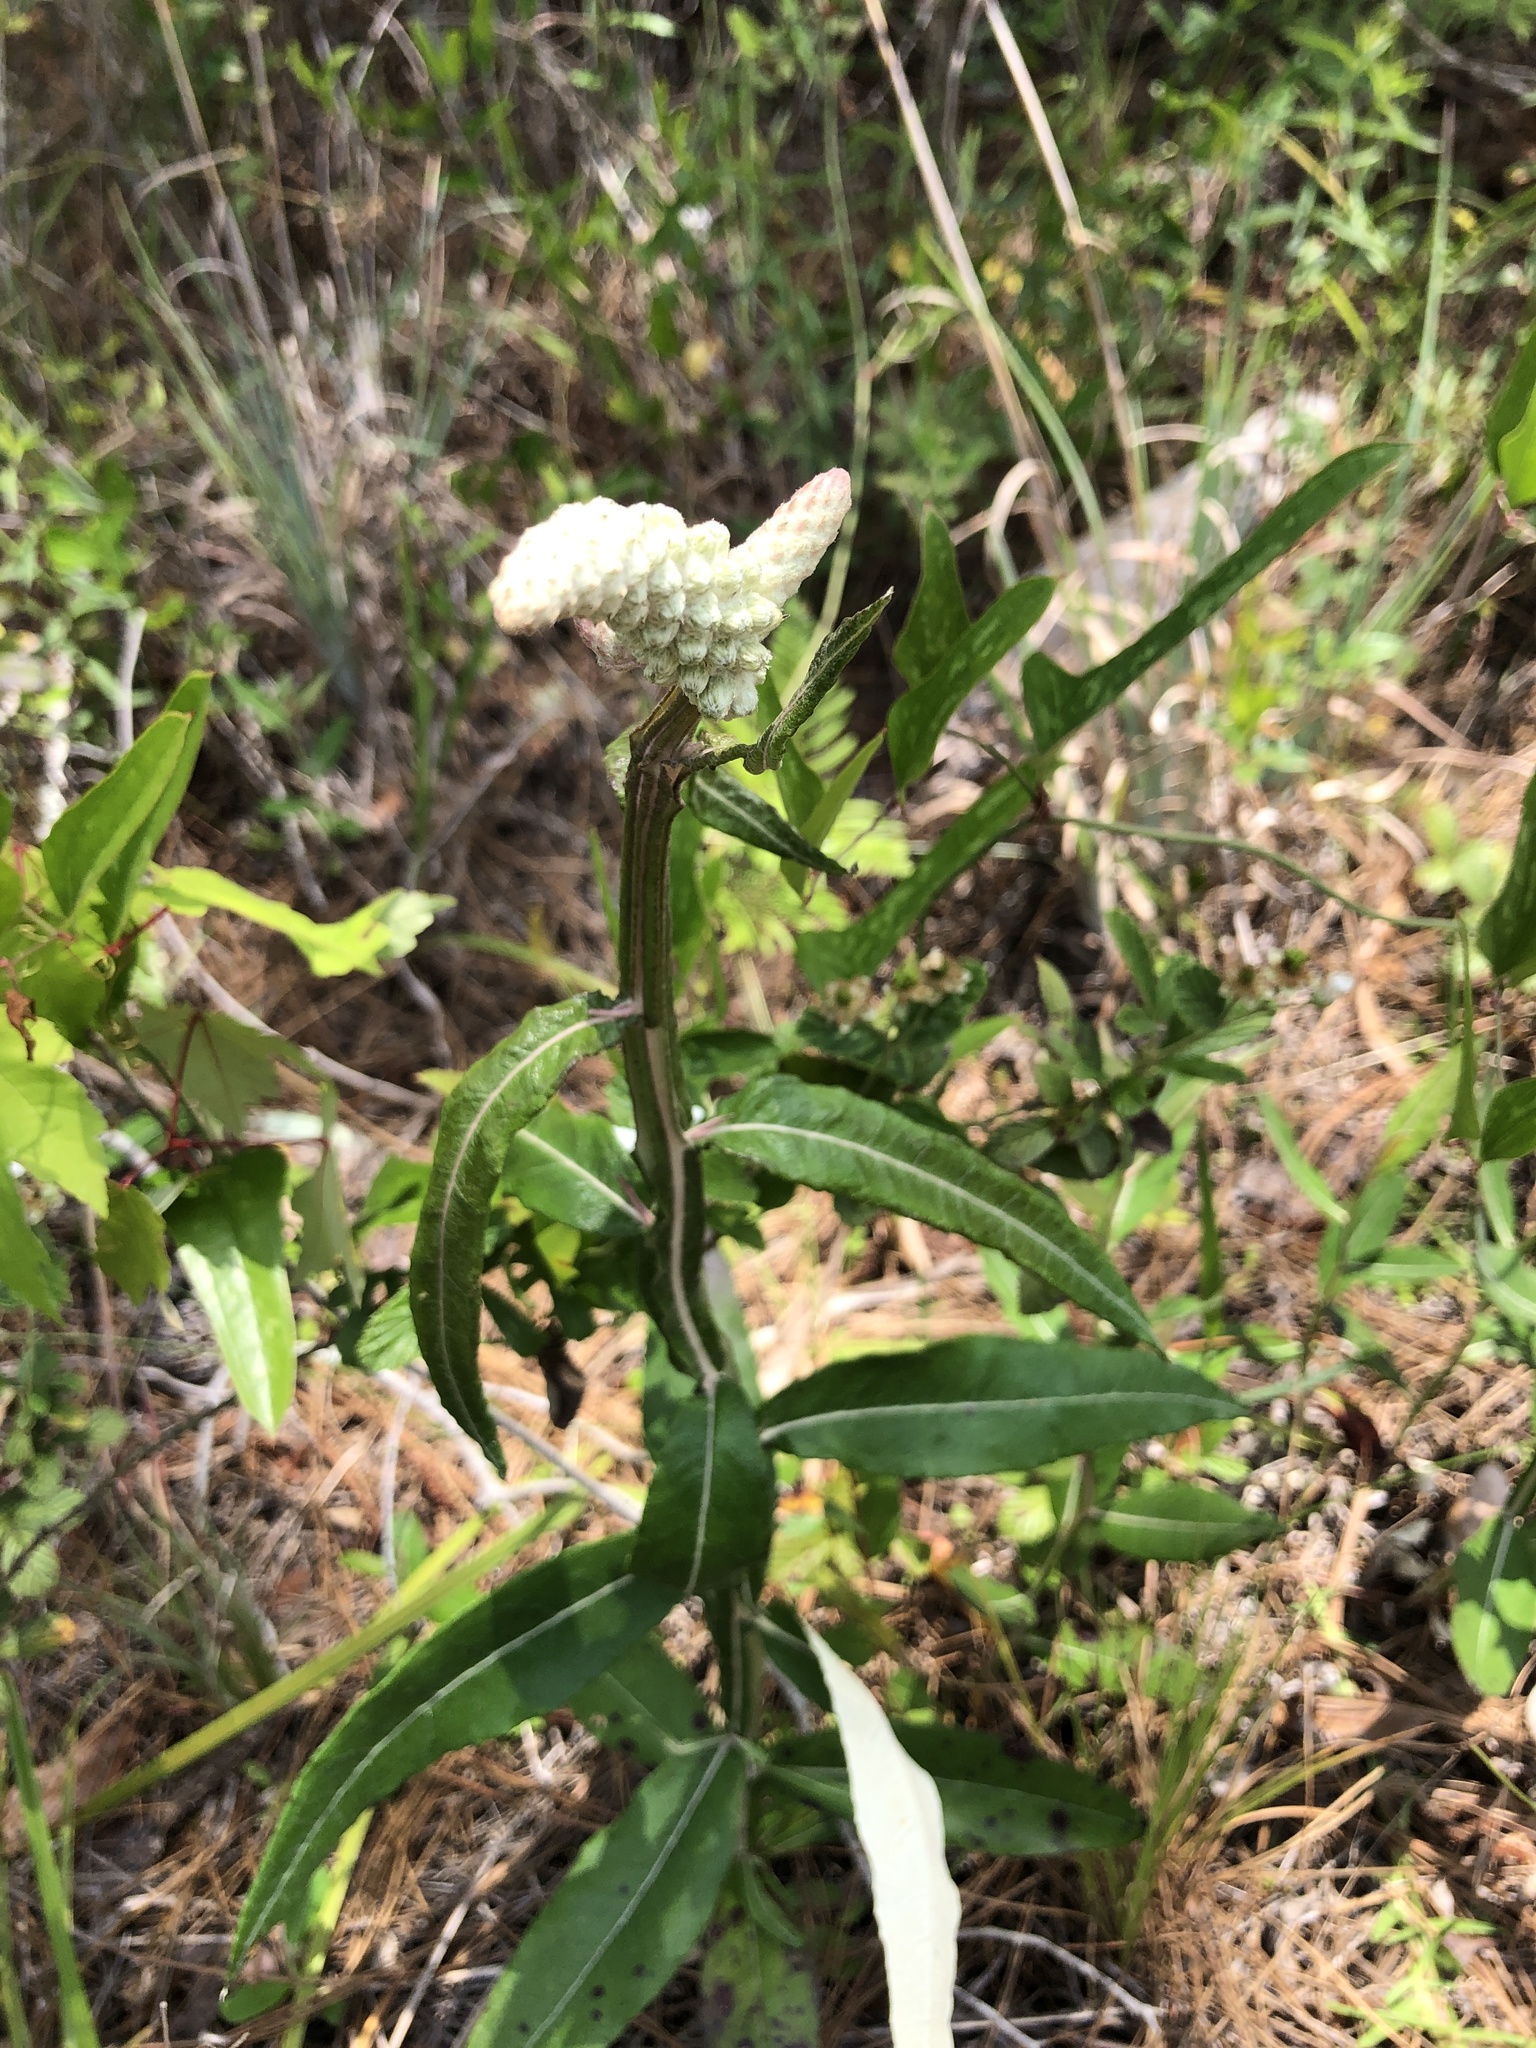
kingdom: Plantae
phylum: Tracheophyta
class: Magnoliopsida
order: Asterales
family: Asteraceae
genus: Pterocaulon
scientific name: Pterocaulon pycnostachyum
